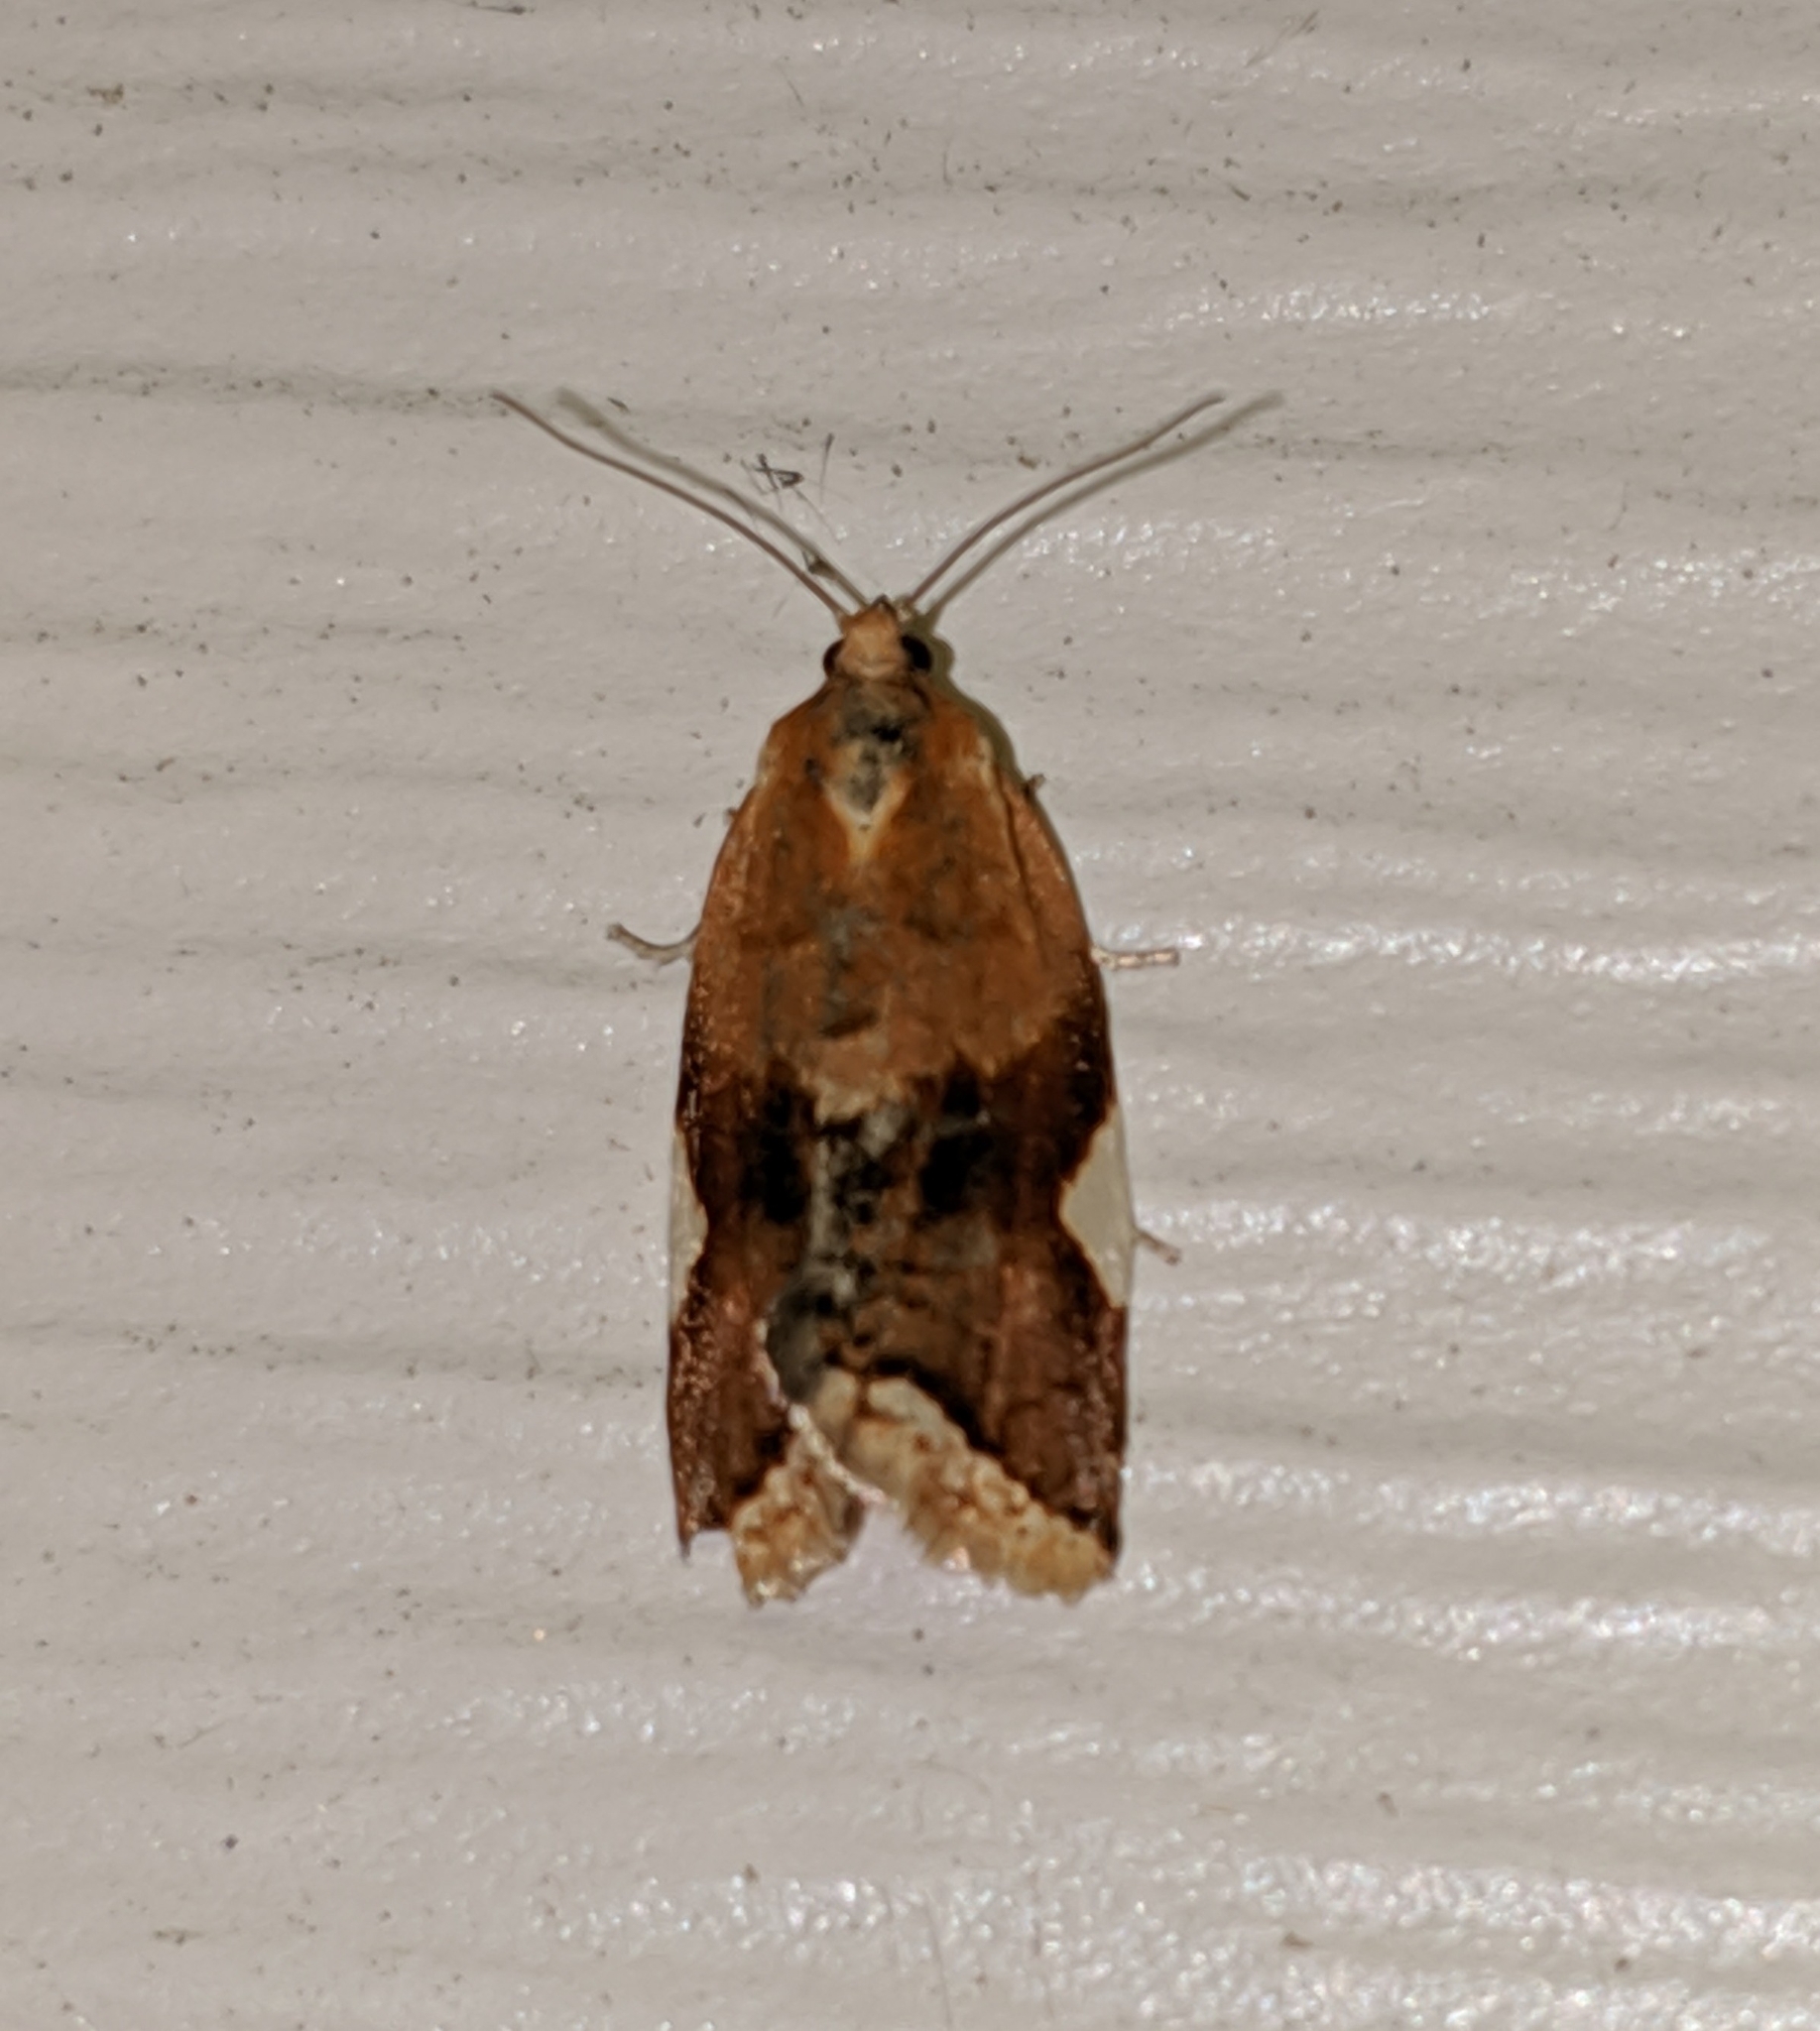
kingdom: Animalia
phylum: Arthropoda
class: Insecta
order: Lepidoptera
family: Tortricidae
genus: Clepsis
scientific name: Clepsis persicana
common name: White triangle tortrix
